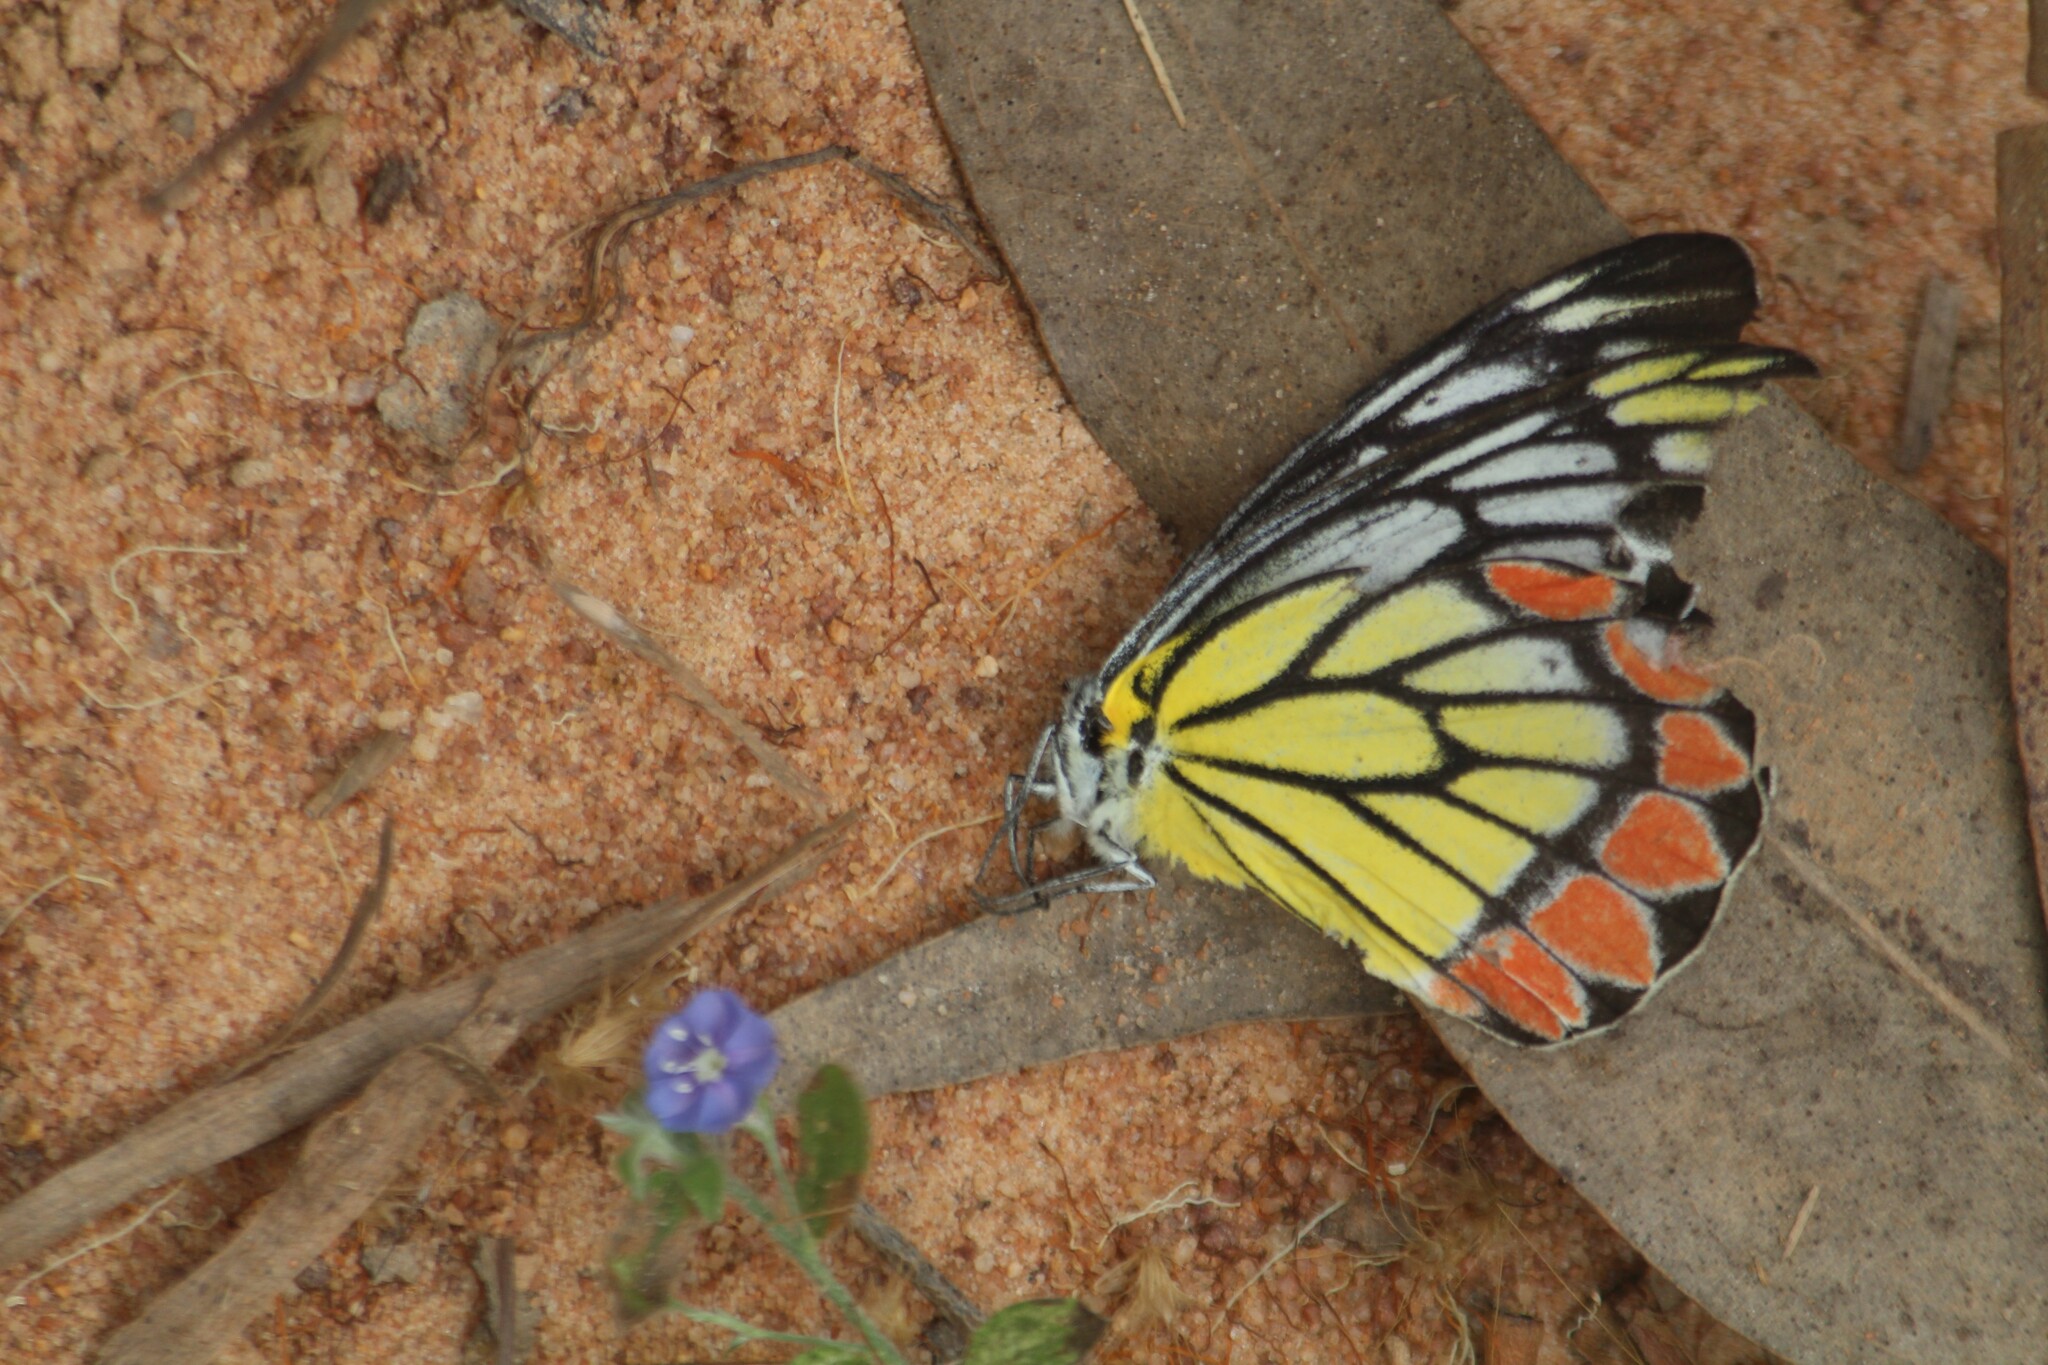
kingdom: Animalia
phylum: Arthropoda
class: Insecta
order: Lepidoptera
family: Pieridae
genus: Delias
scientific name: Delias eucharis
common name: Common jezebel
